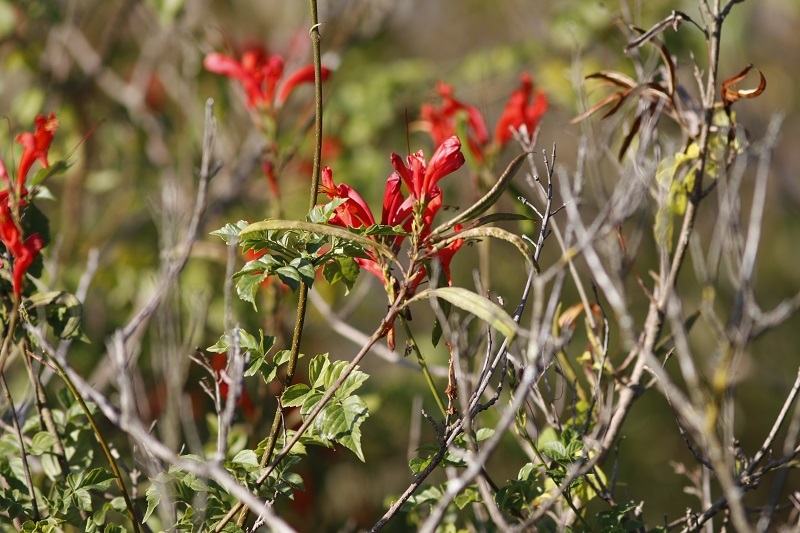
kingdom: Plantae
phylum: Tracheophyta
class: Magnoliopsida
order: Lamiales
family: Bignoniaceae
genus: Tecomaria
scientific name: Tecomaria capensis
